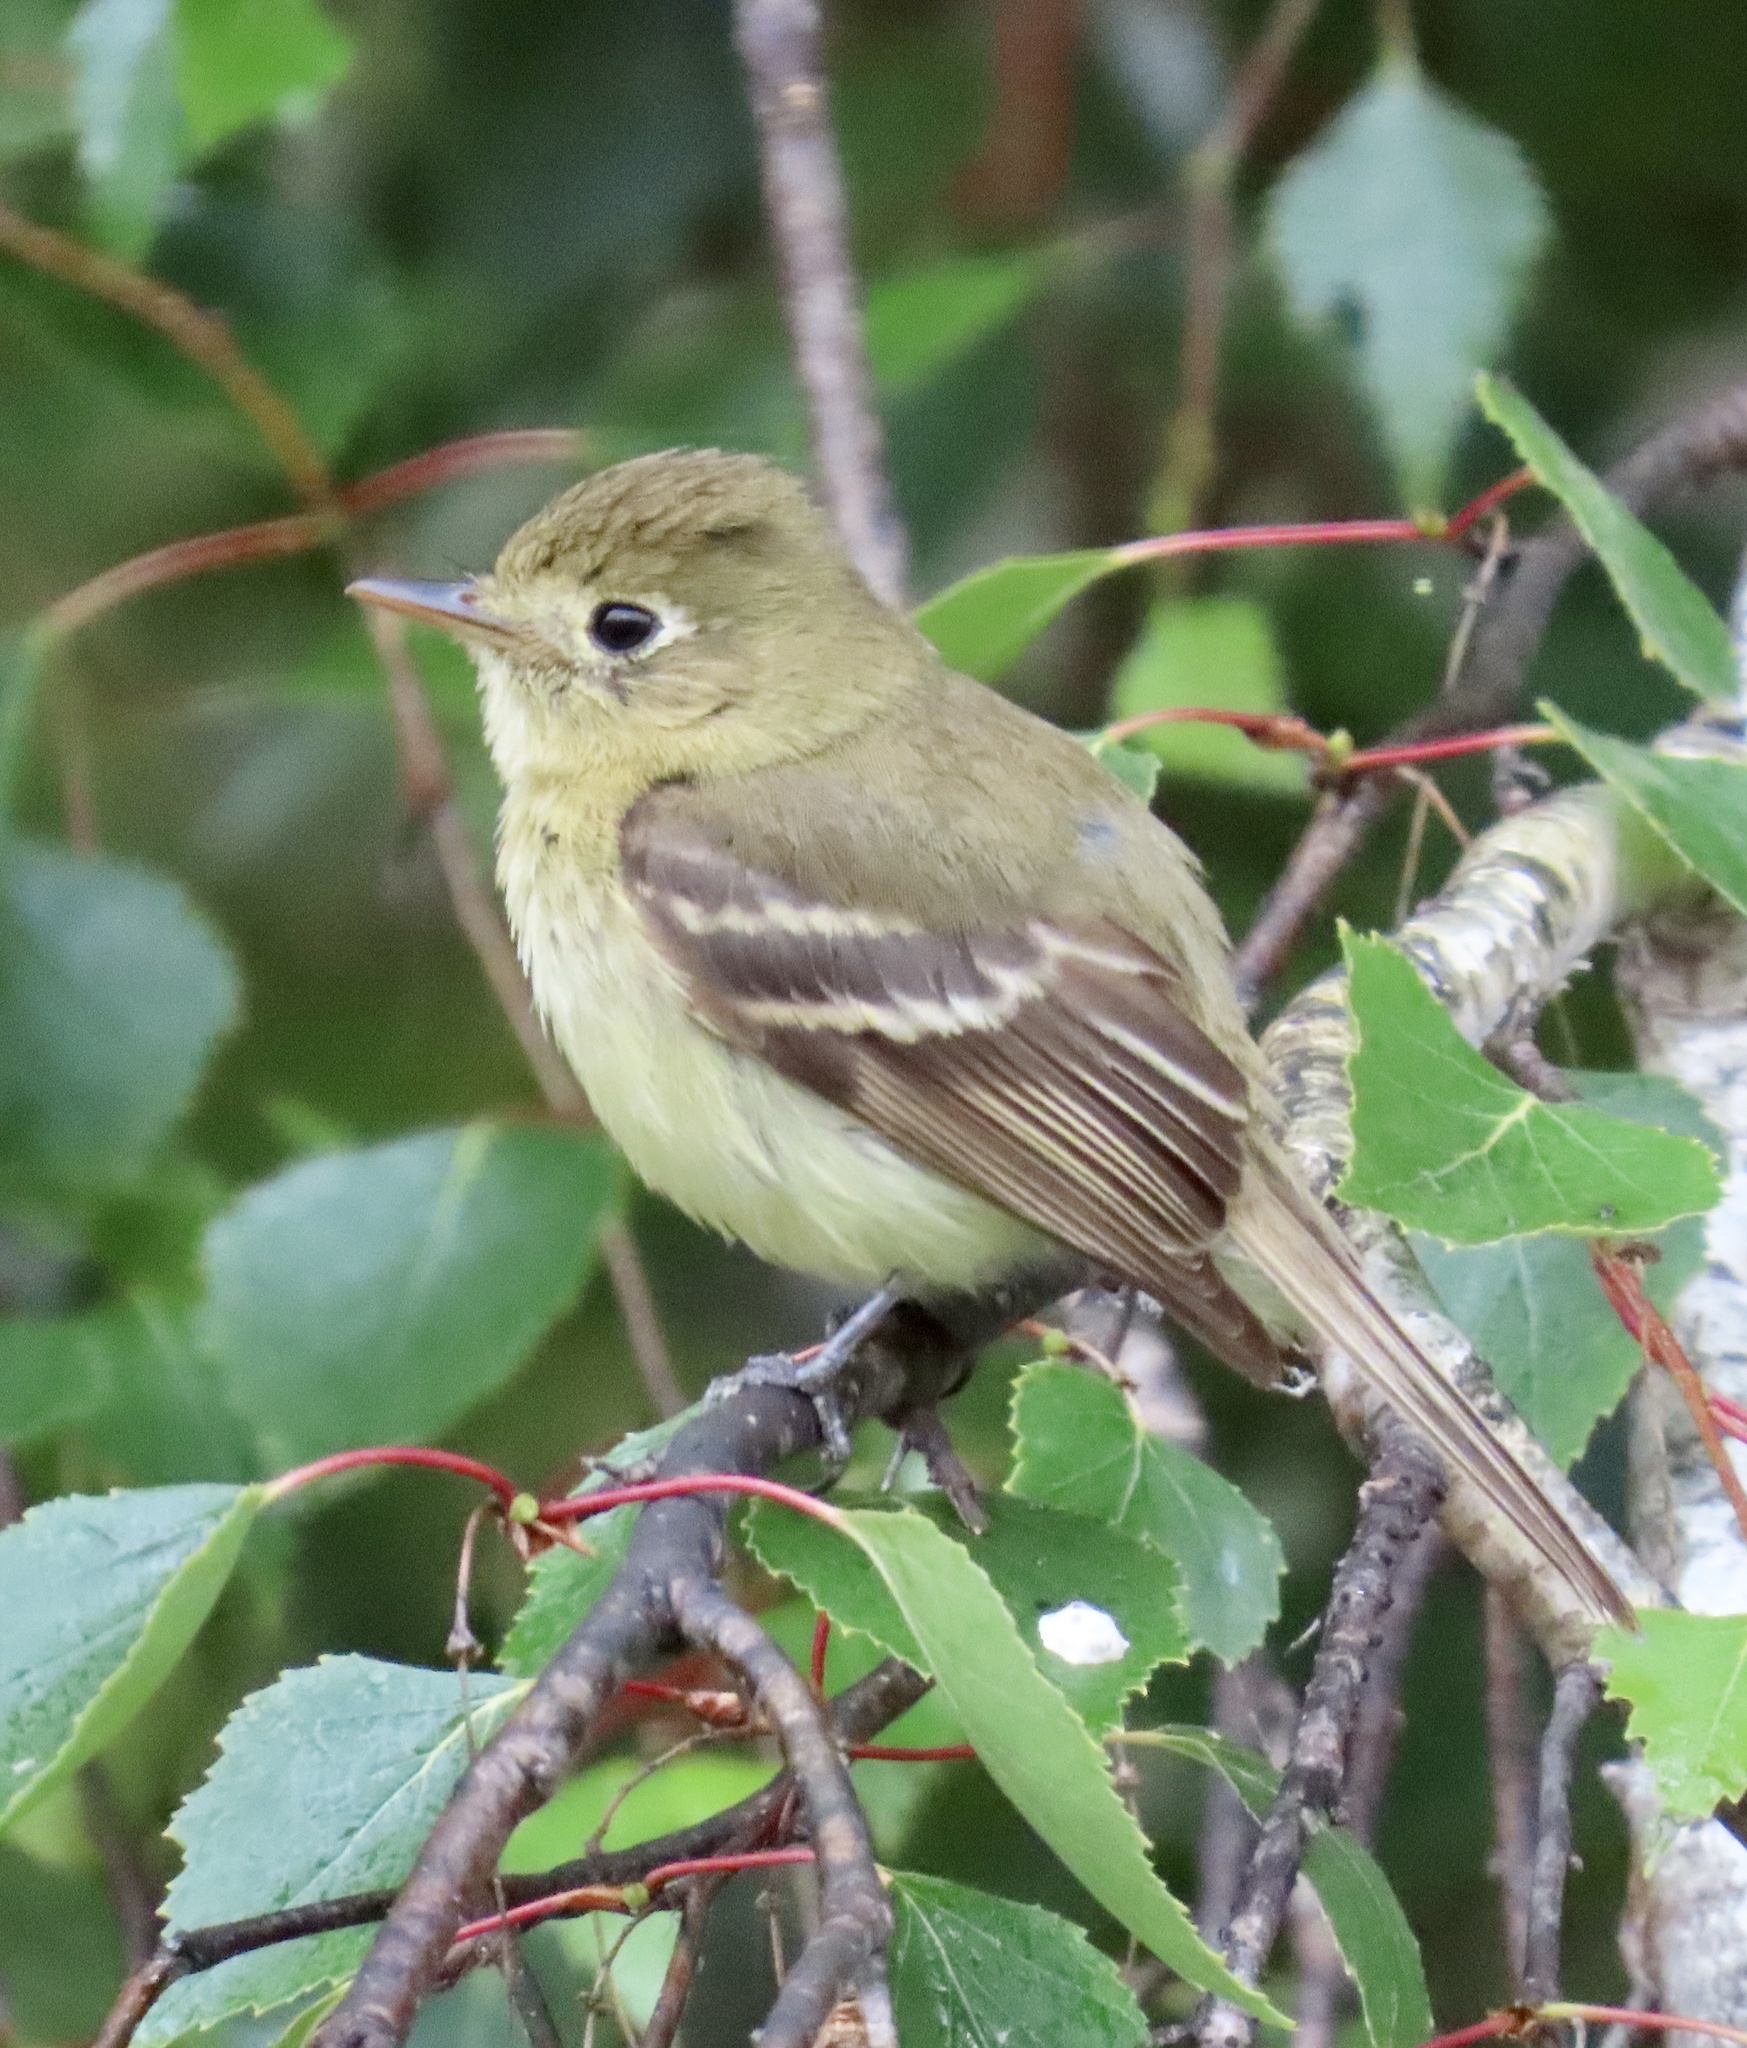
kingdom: Animalia
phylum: Chordata
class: Aves
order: Passeriformes
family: Tyrannidae
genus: Empidonax
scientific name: Empidonax difficilis
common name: Pacific-slope flycatcher
